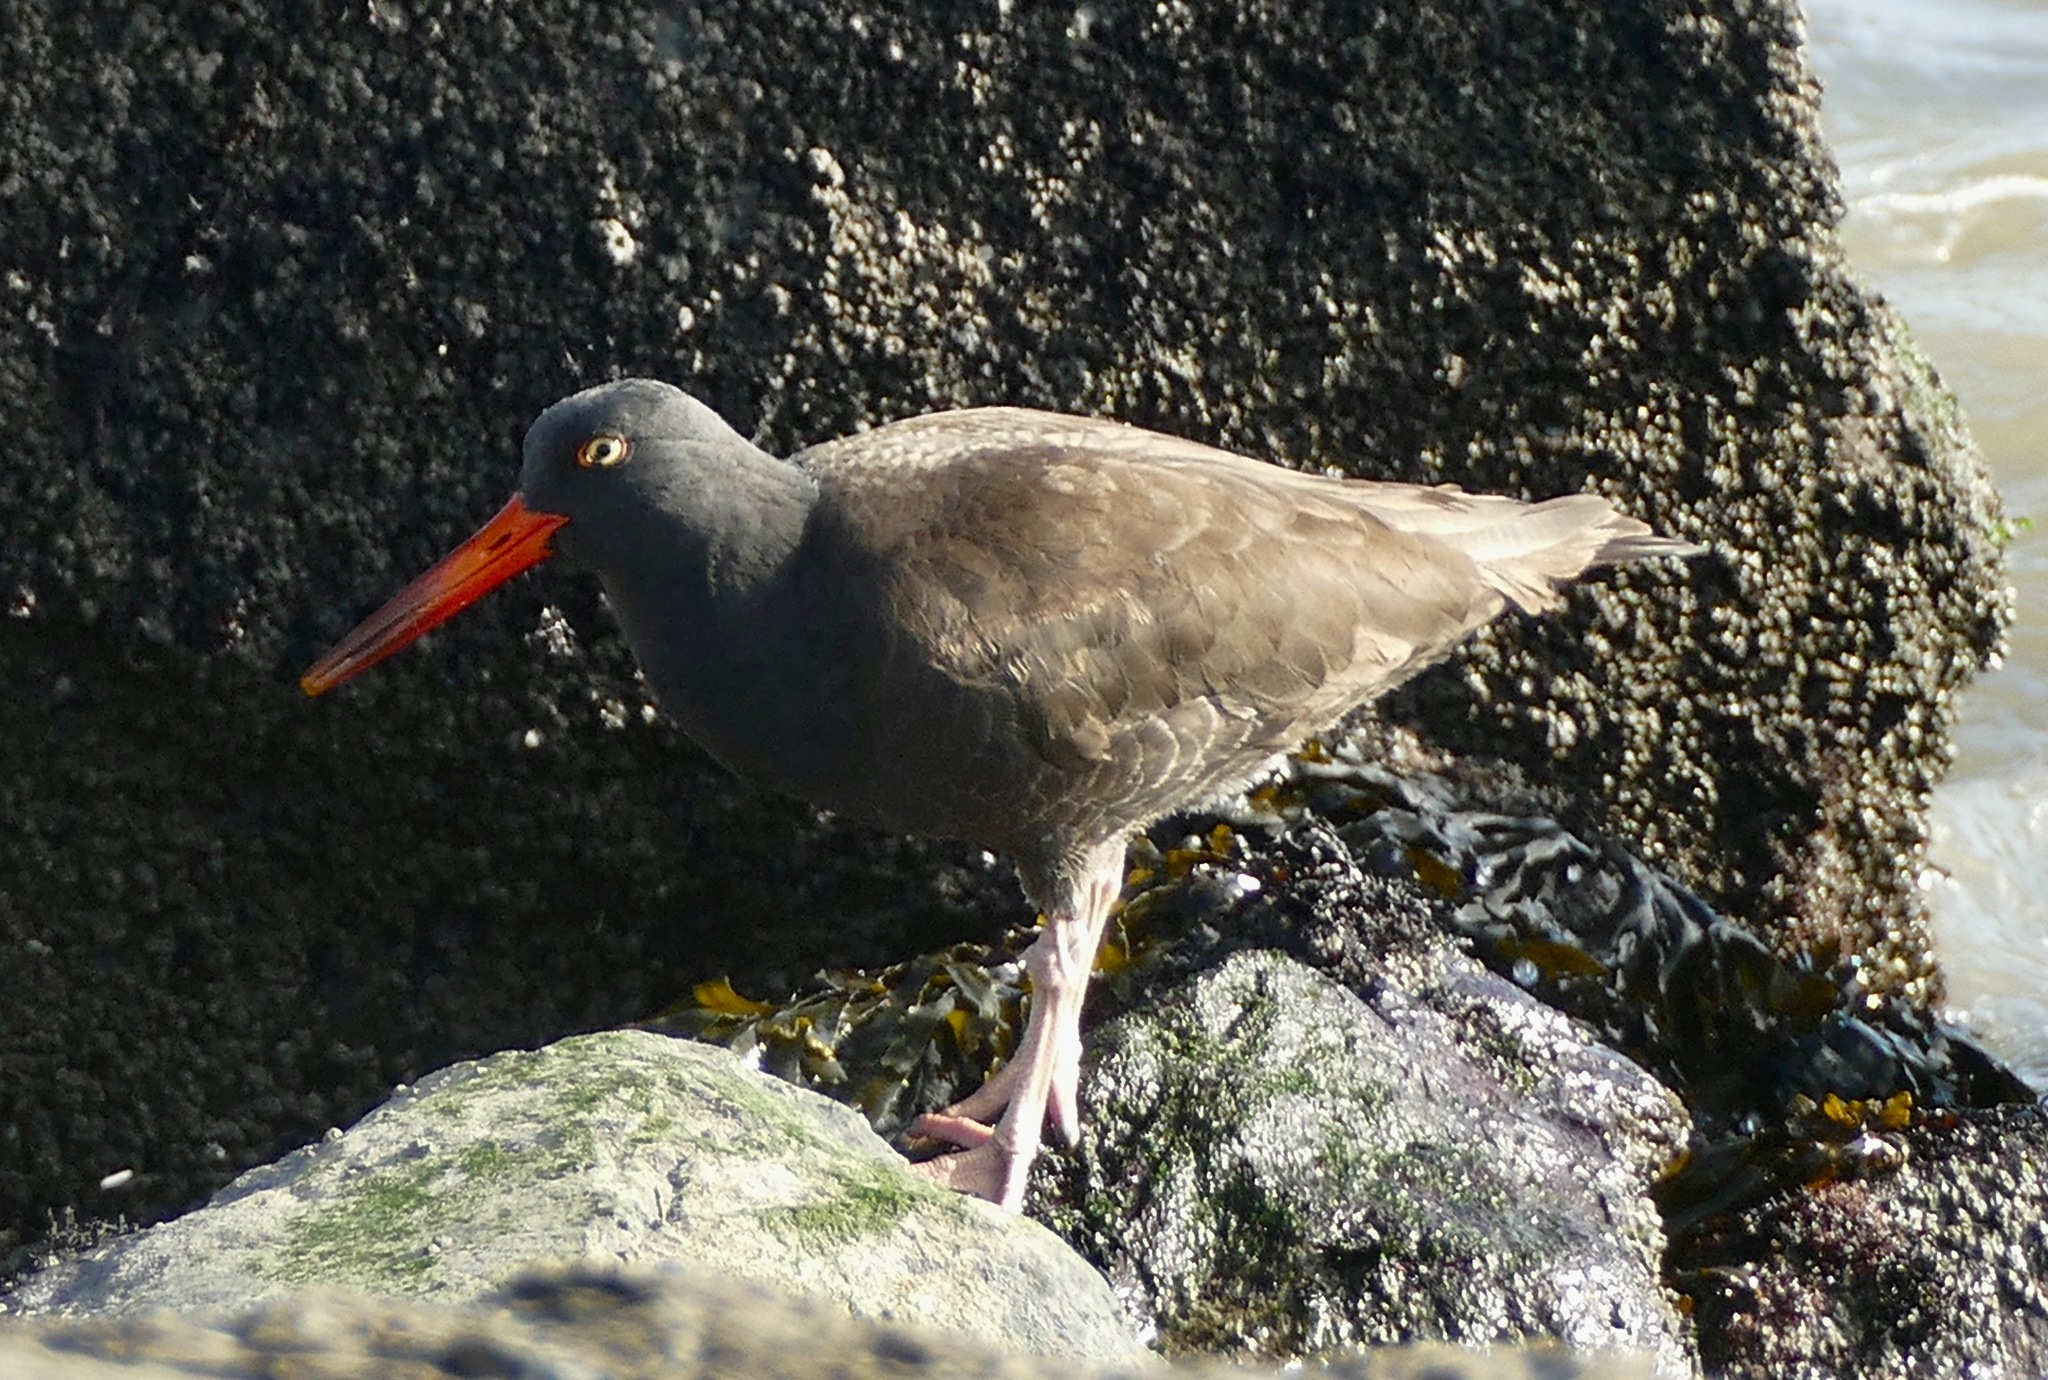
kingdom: Animalia
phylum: Chordata
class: Aves
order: Charadriiformes
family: Haematopodidae
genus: Haematopus
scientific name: Haematopus bachmani
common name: Black oystercatcher
